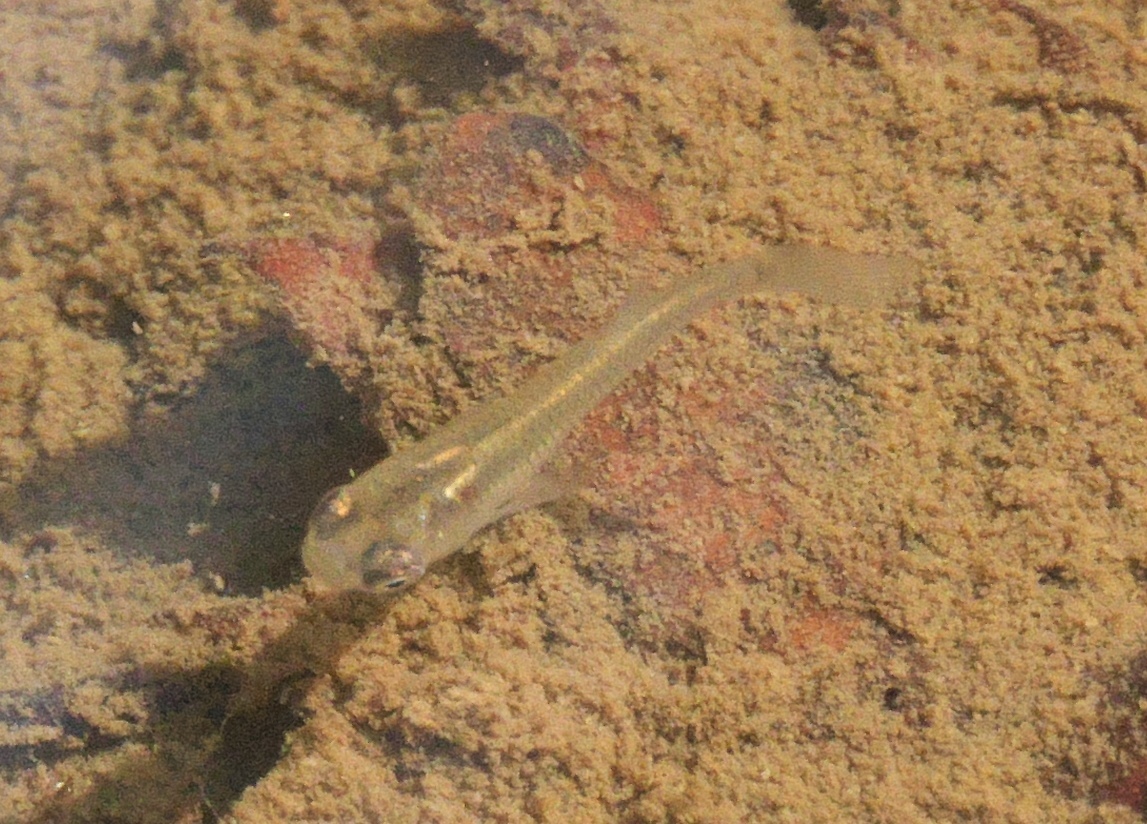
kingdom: Animalia
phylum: Chordata
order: Cyprinodontiformes
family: Poeciliidae
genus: Gambusia
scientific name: Gambusia affinis
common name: Mosquitofish
